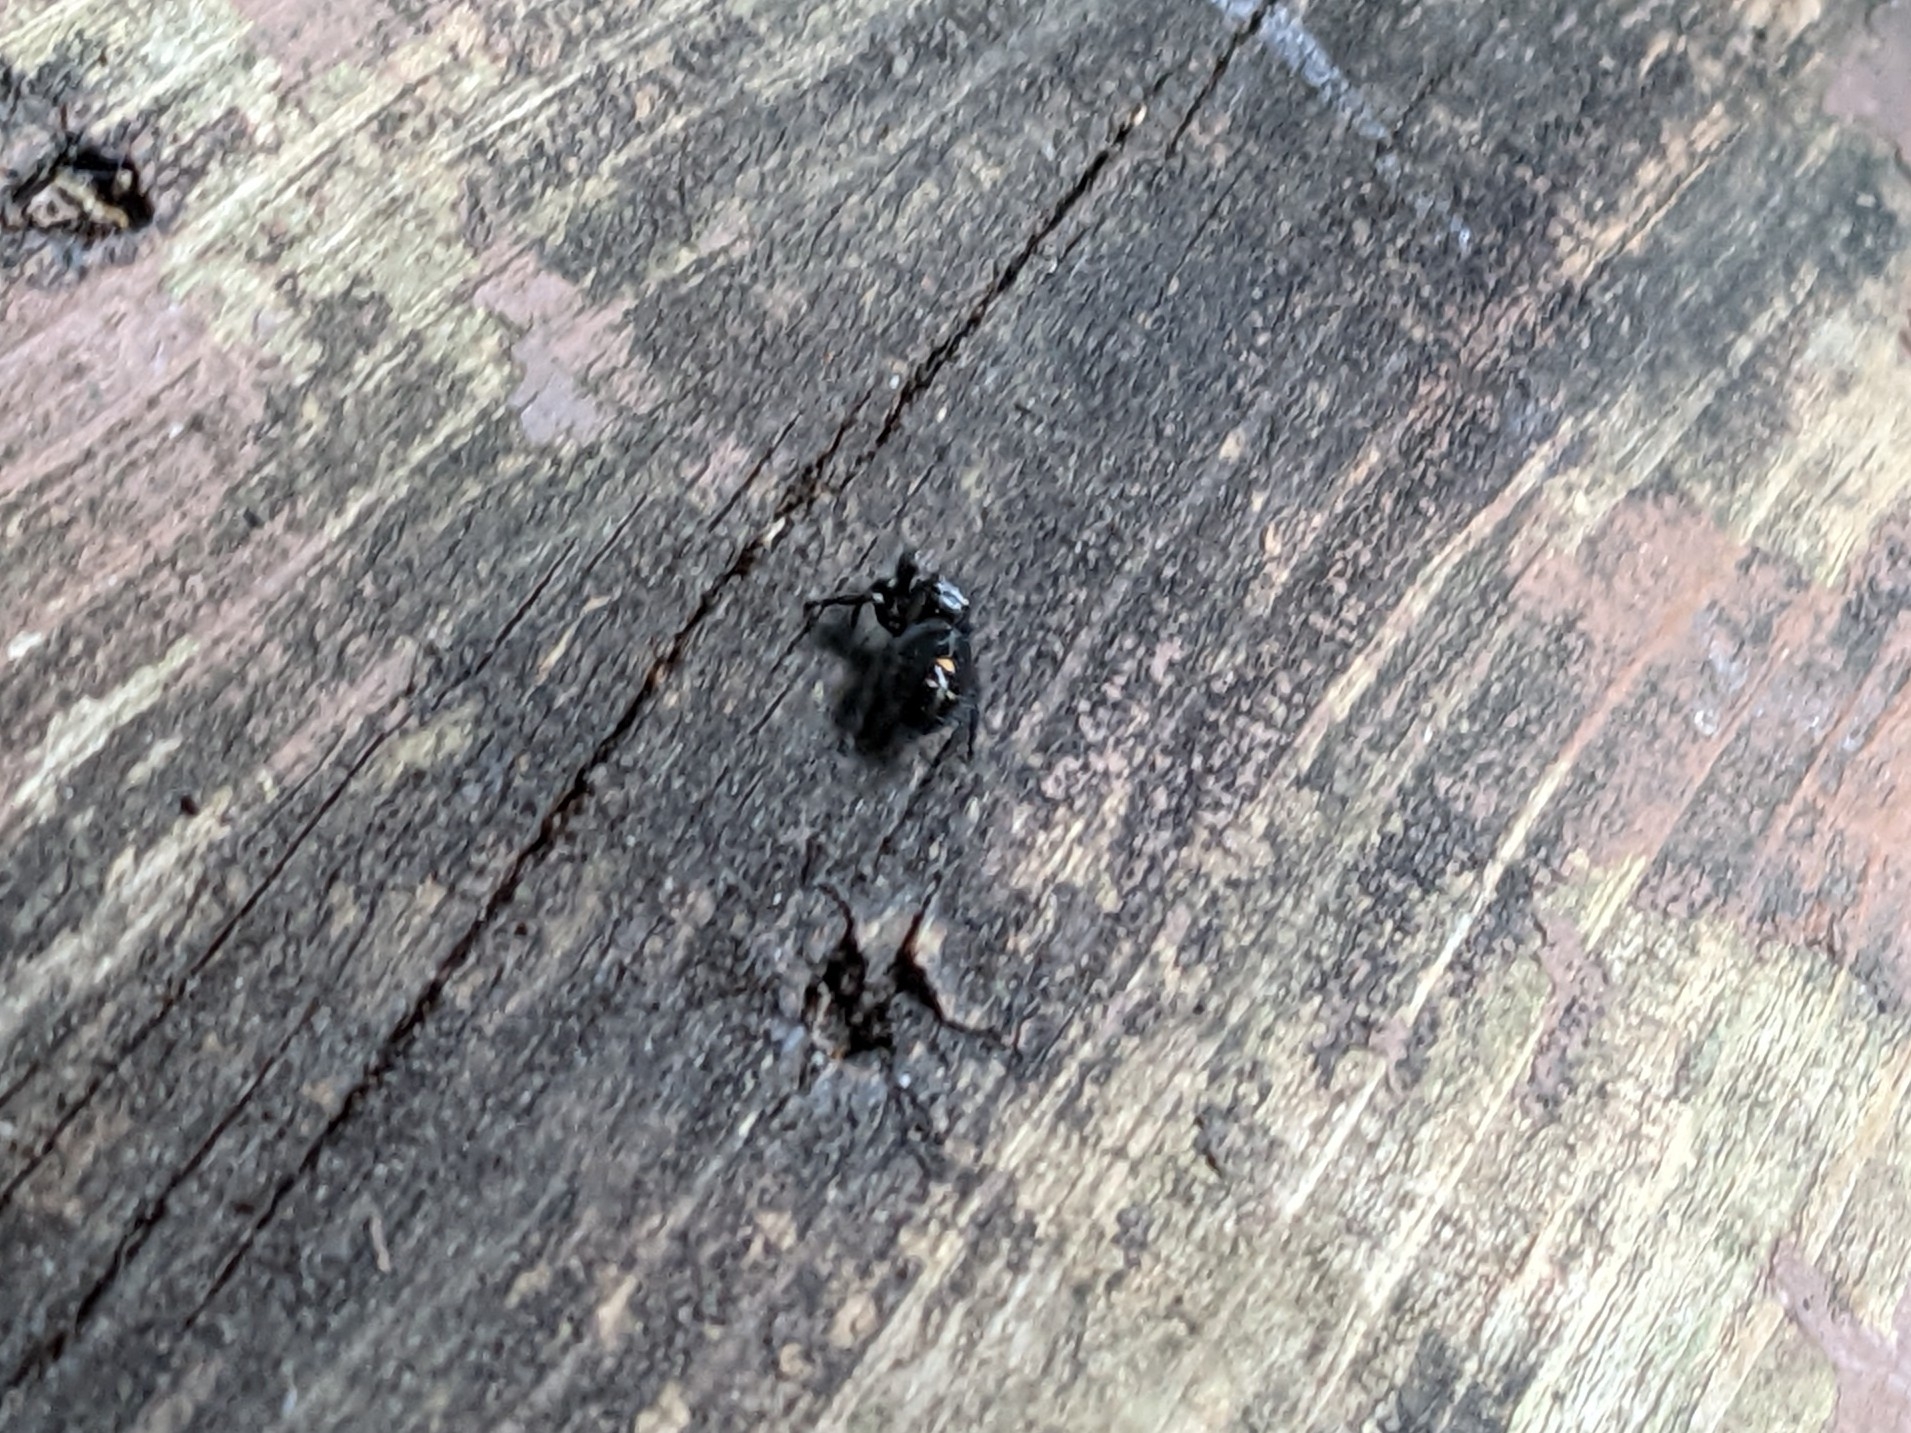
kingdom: Animalia
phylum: Arthropoda
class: Arachnida
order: Araneae
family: Salticidae
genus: Phidippus
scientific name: Phidippus audax
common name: Bold jumper
